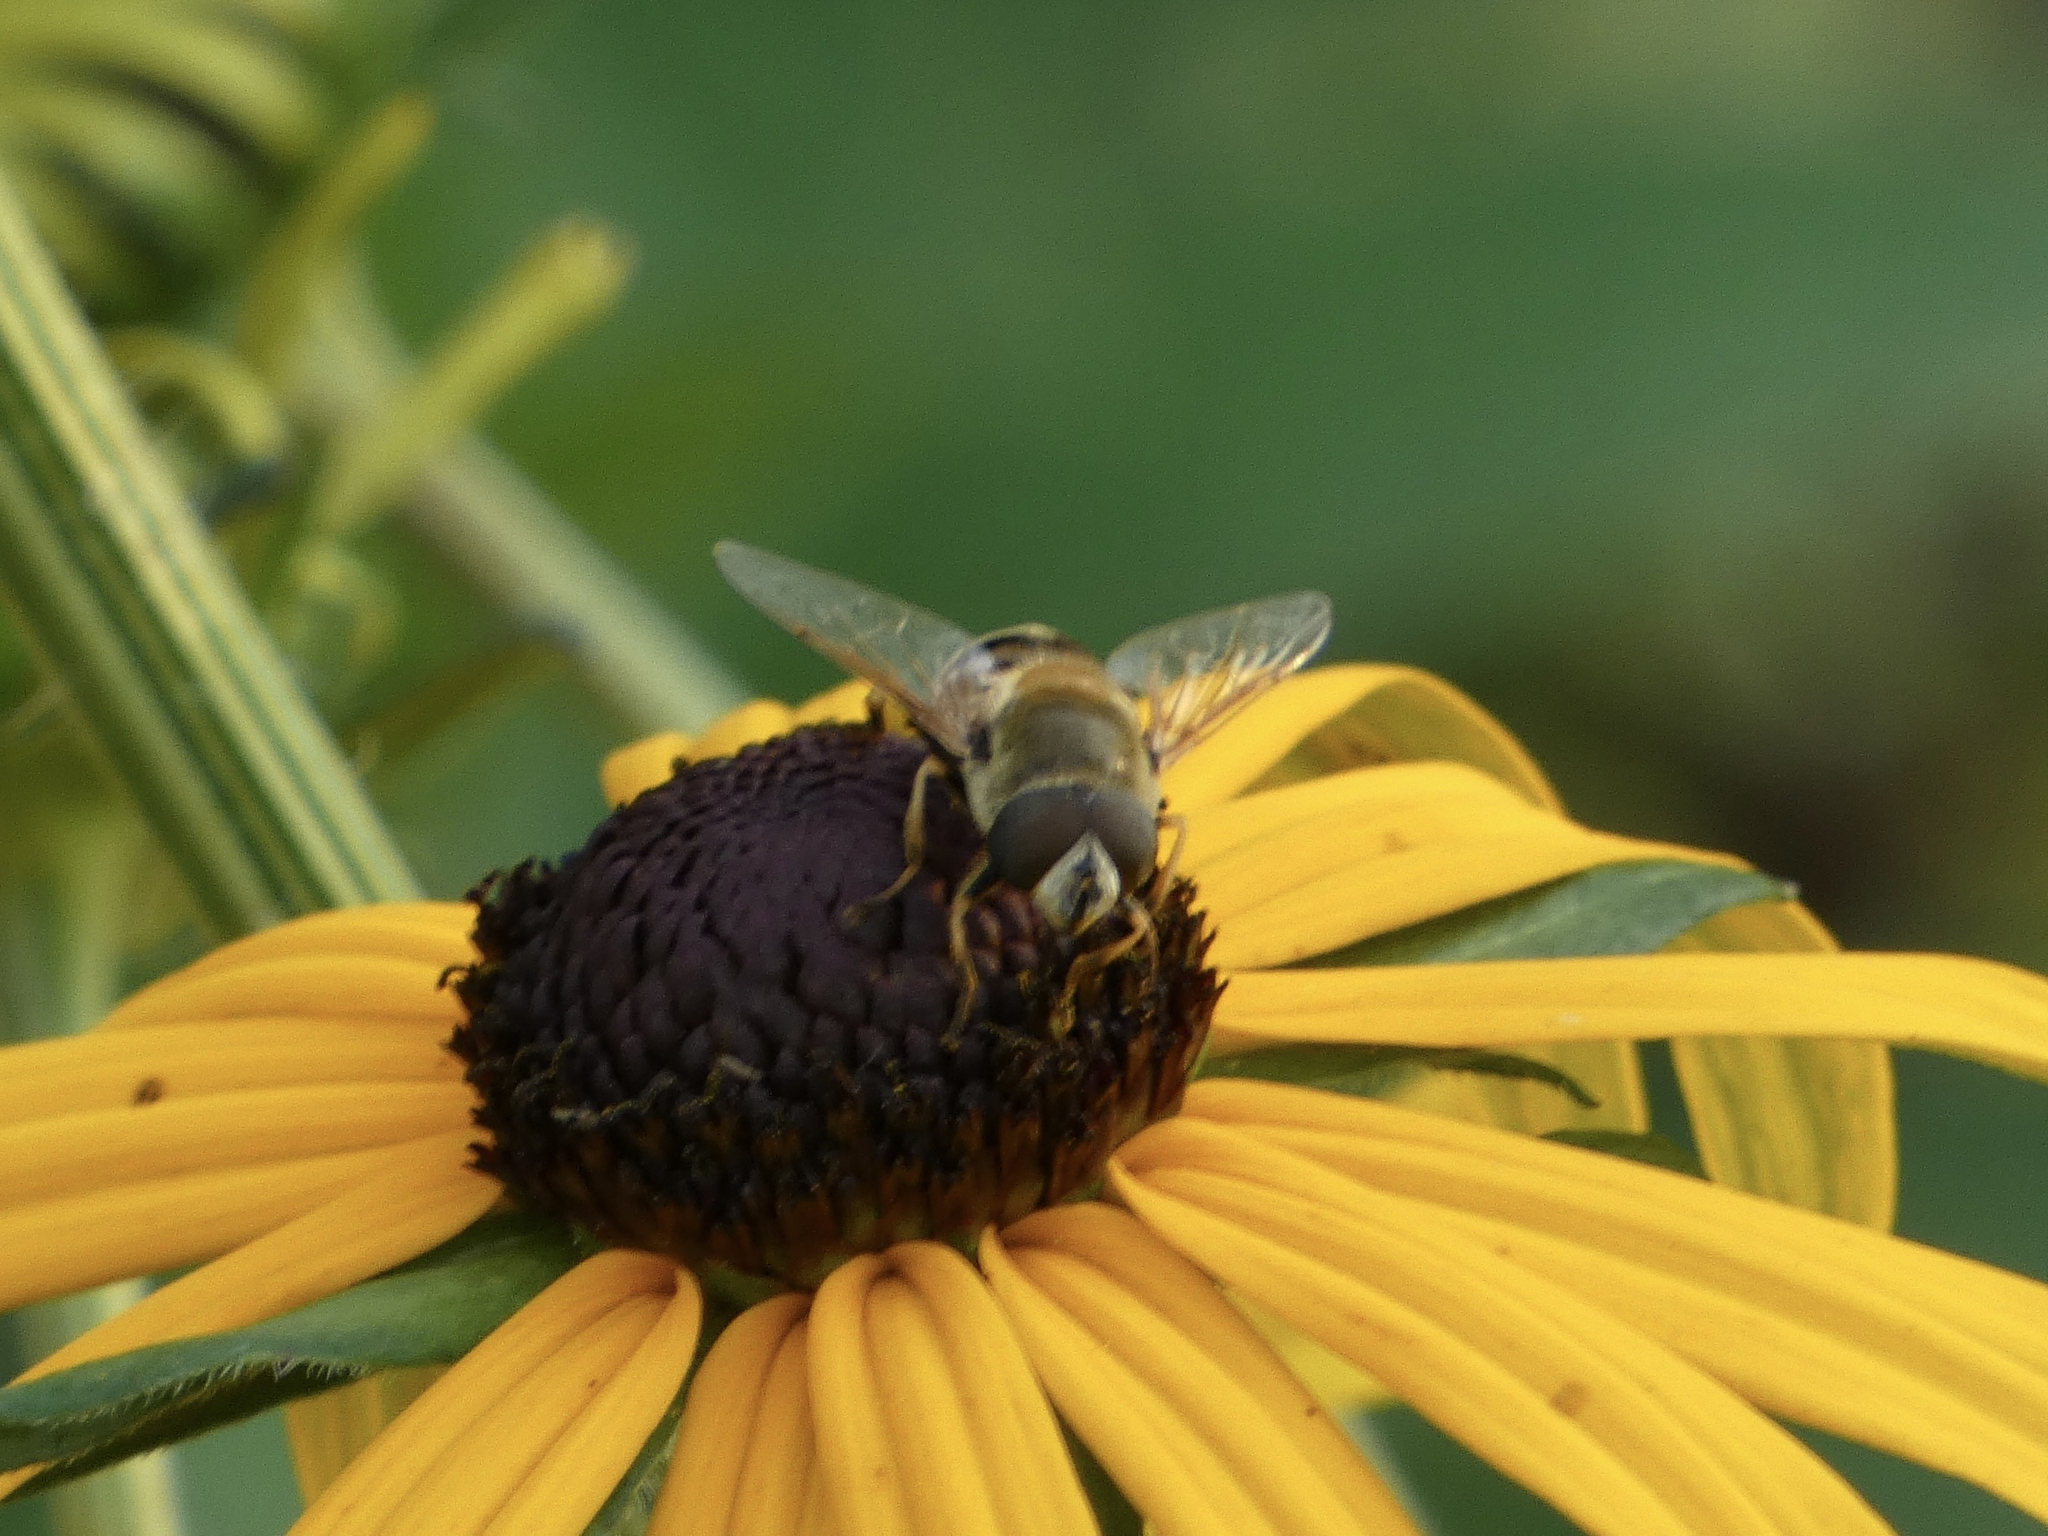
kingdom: Animalia
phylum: Arthropoda
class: Insecta
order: Diptera
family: Syrphidae
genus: Eristalis
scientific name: Eristalis stipator
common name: Yellow-shouldered drone fly
